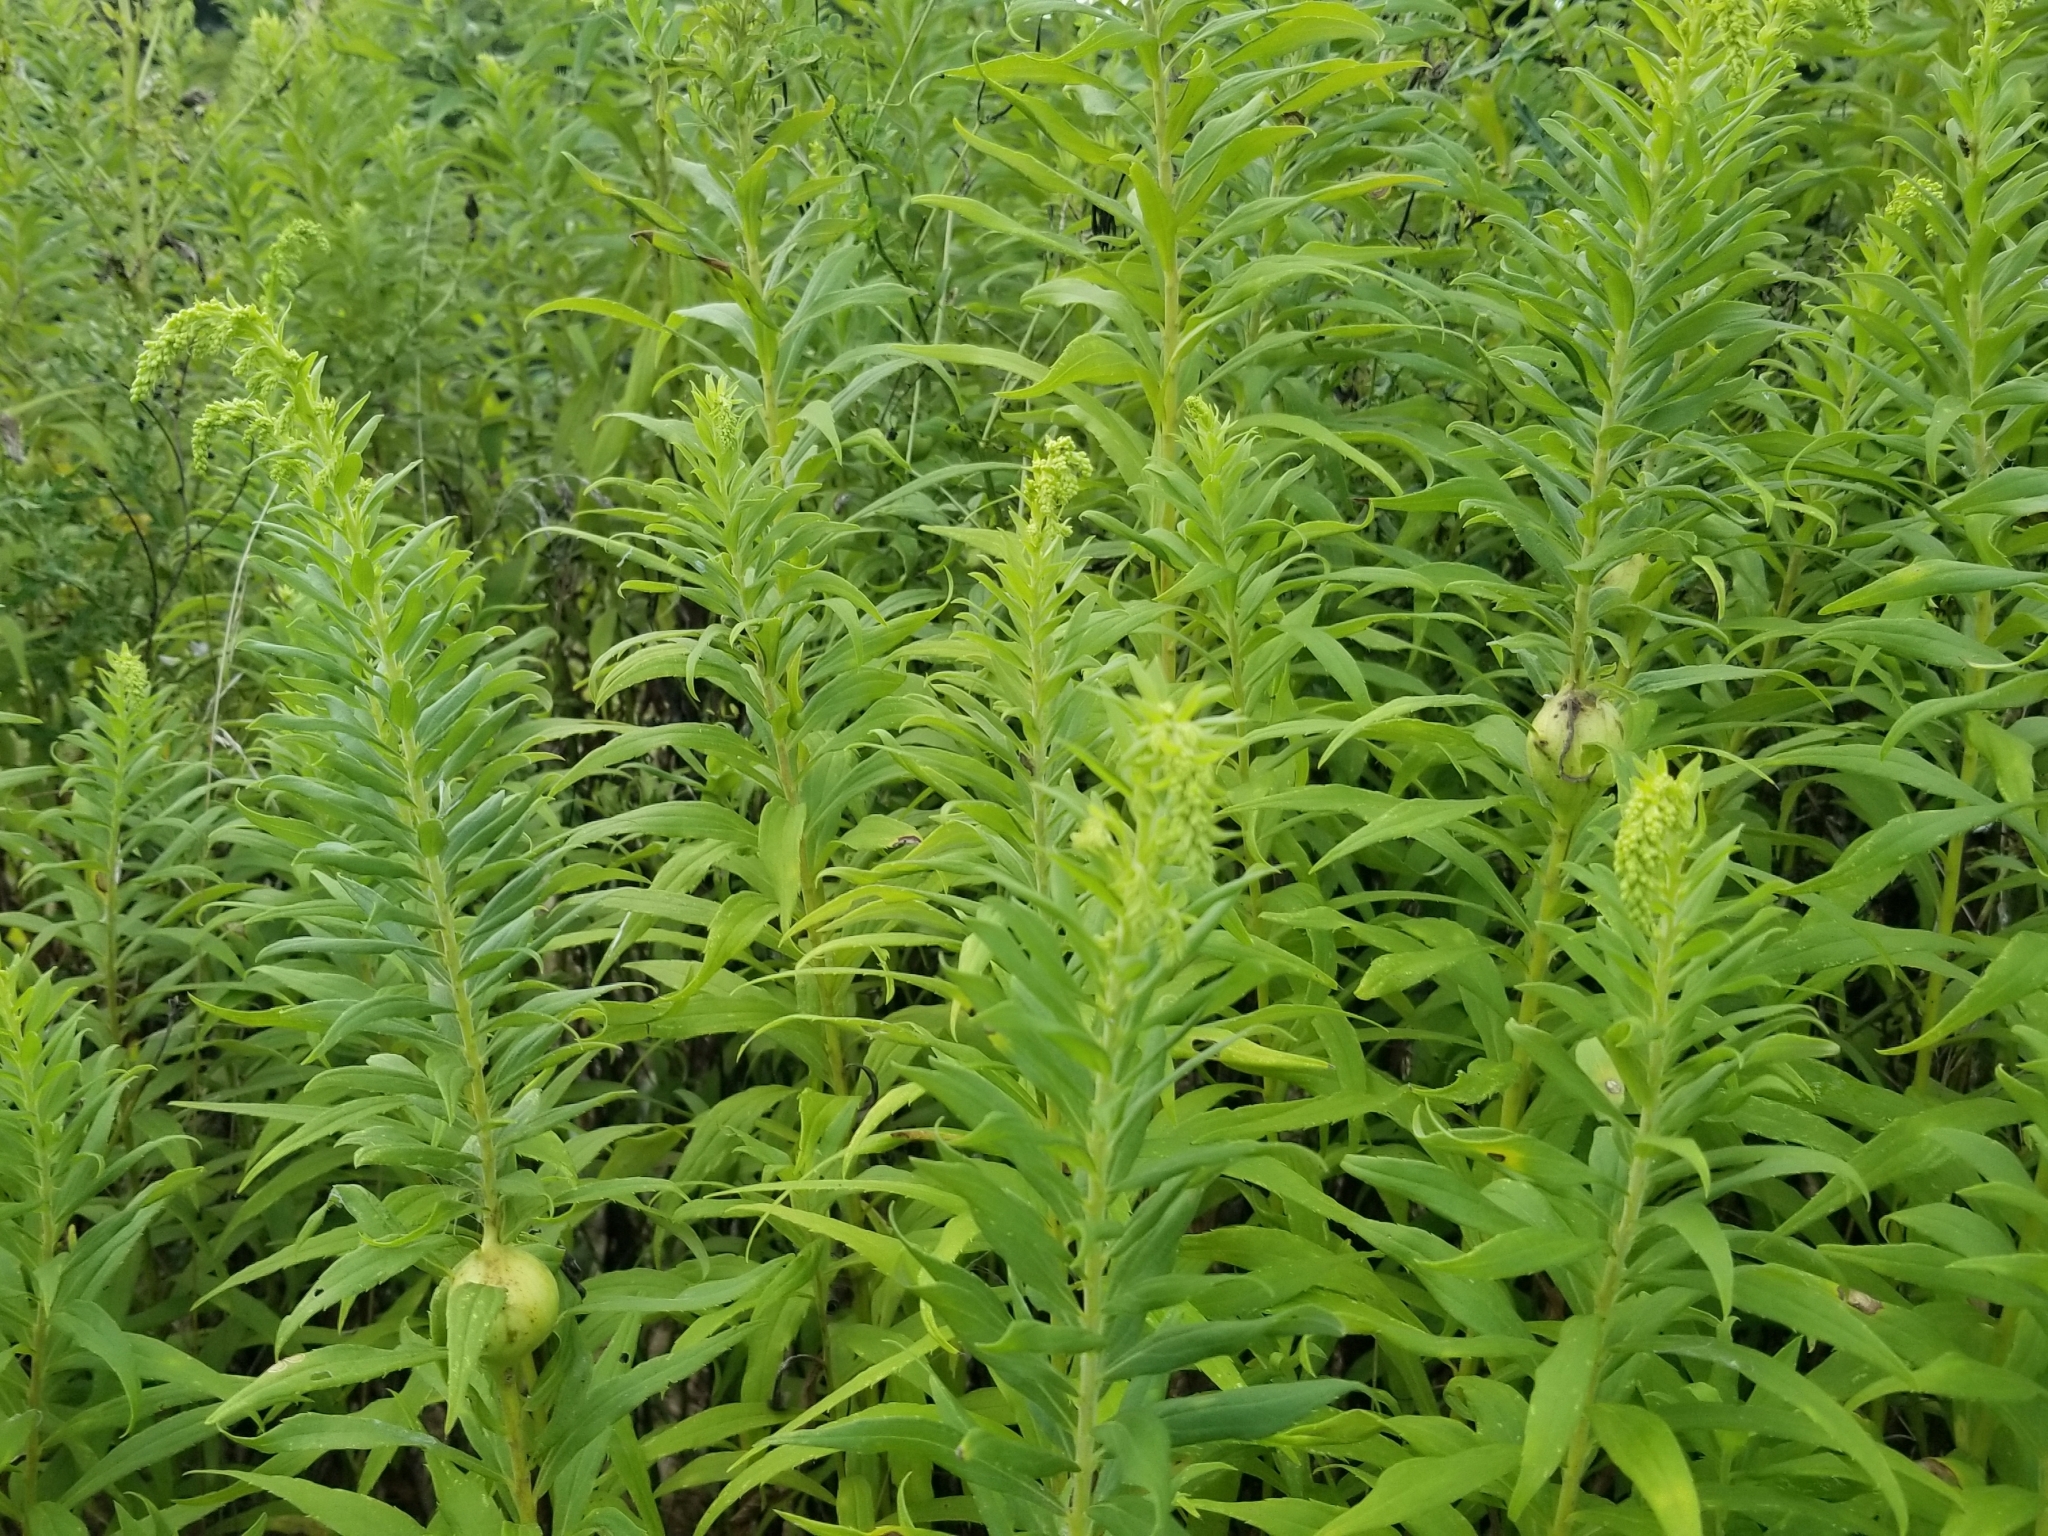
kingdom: Animalia
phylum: Arthropoda
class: Insecta
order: Diptera
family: Tephritidae
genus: Eurosta
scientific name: Eurosta solidaginis
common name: Goldenrod gall fly
